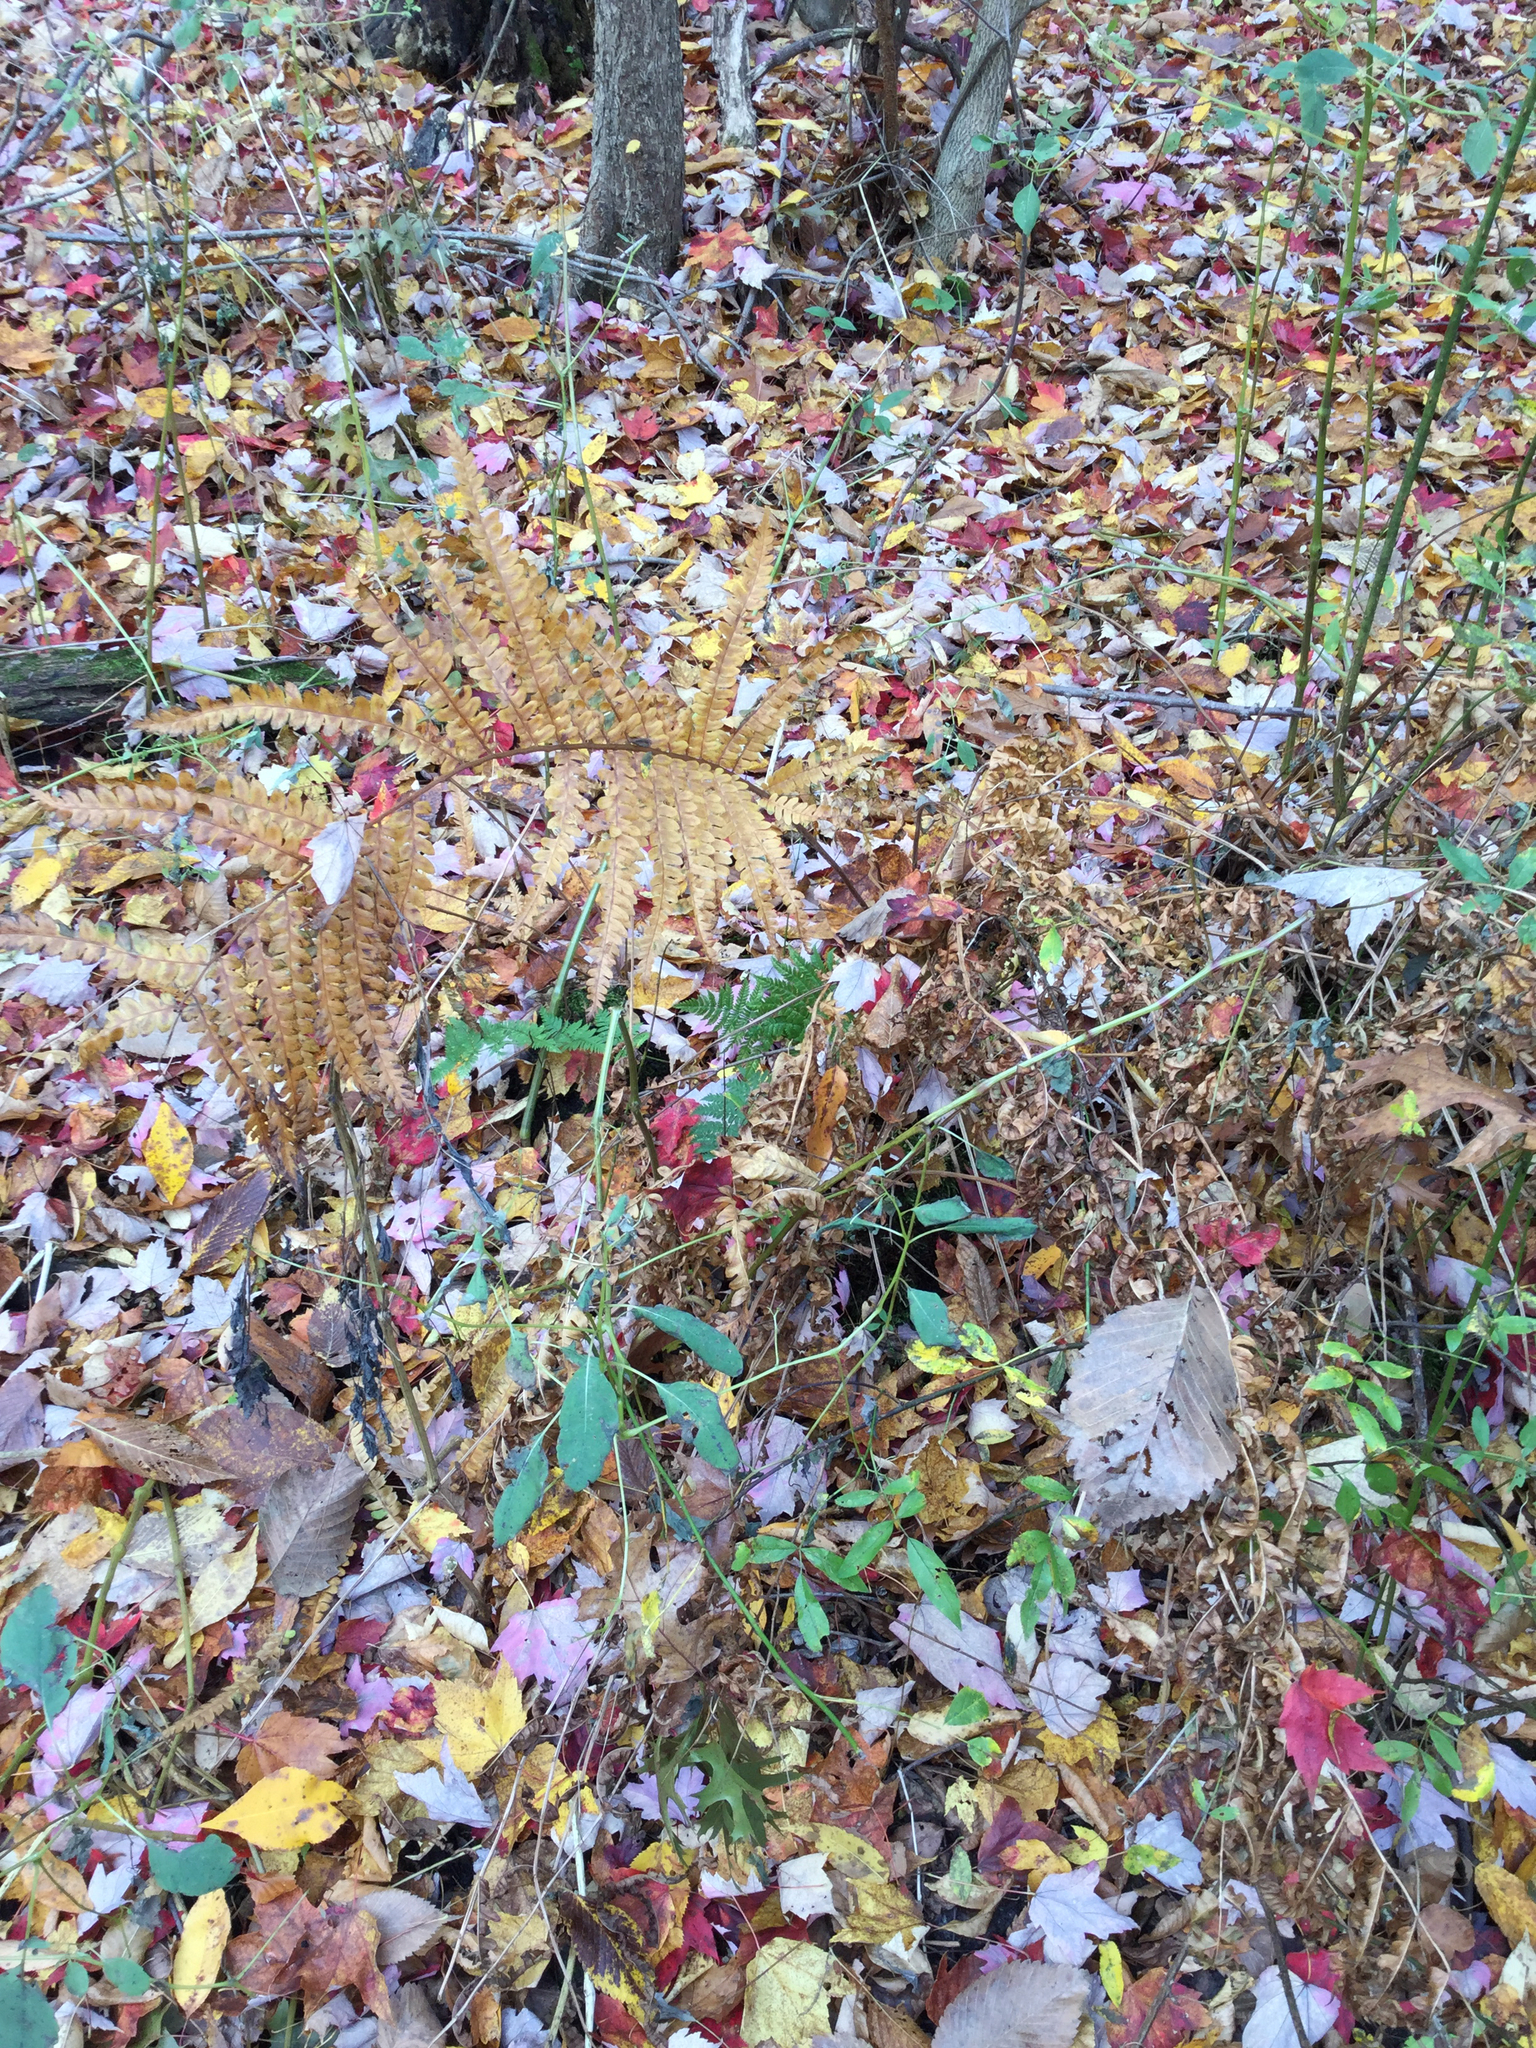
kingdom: Plantae
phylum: Tracheophyta
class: Polypodiopsida
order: Osmundales
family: Osmundaceae
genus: Osmundastrum
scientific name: Osmundastrum cinnamomeum
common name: Cinnamon fern
